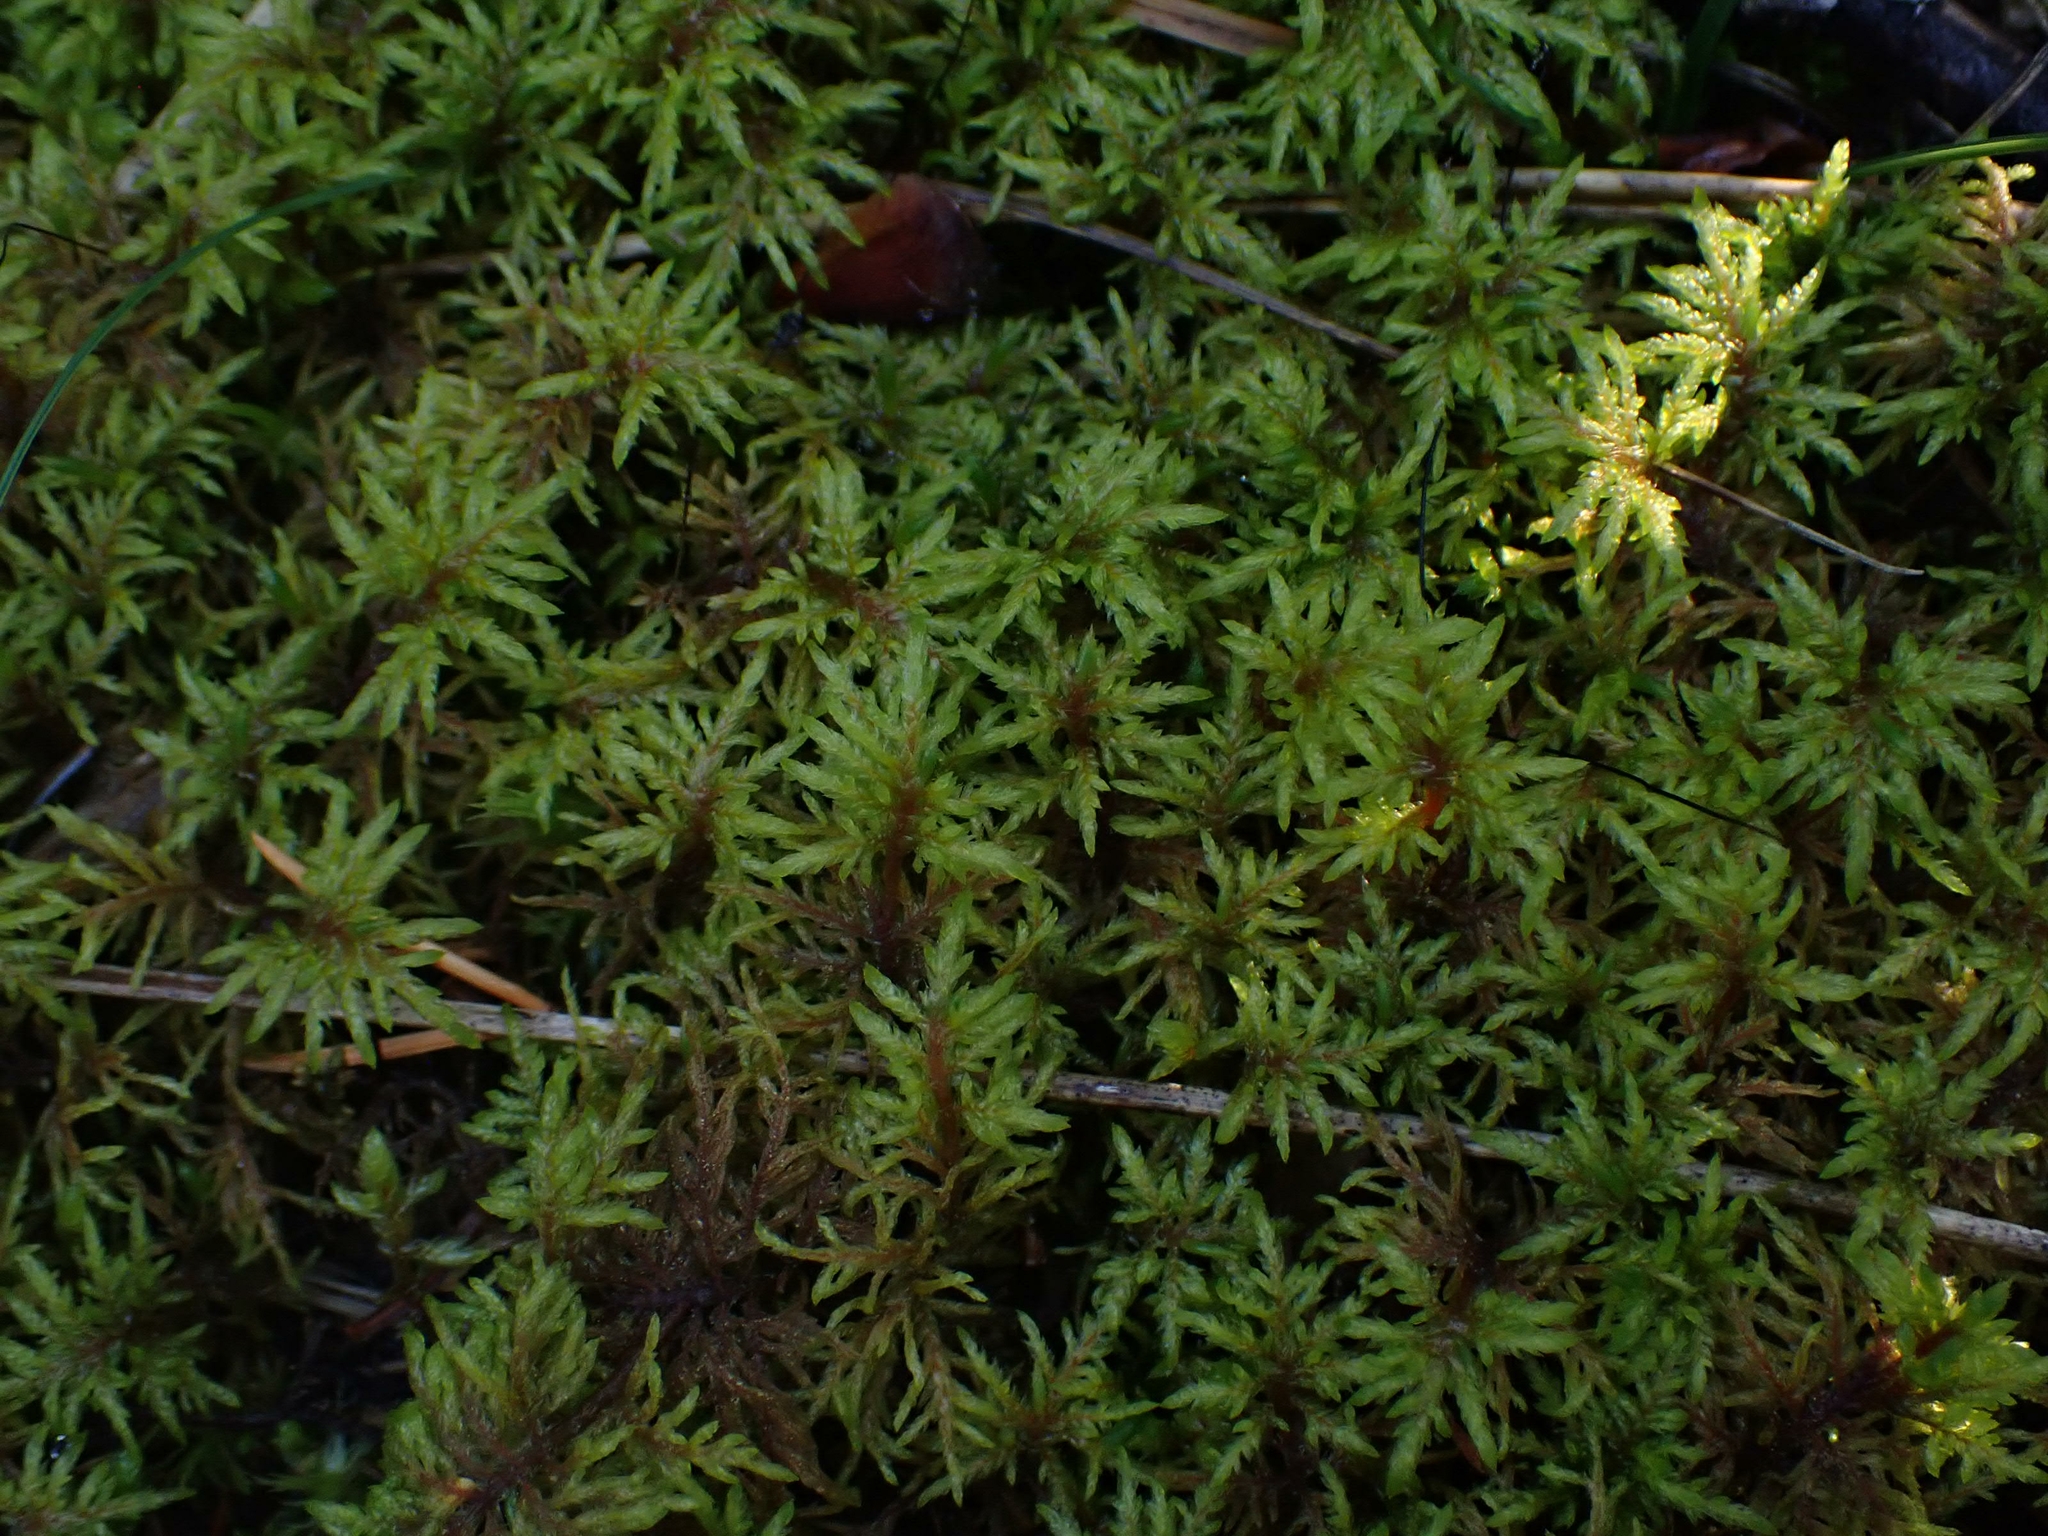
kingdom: Plantae
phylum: Bryophyta
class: Bryopsida
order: Hypnales
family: Hylocomiaceae
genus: Hylocomium
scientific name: Hylocomium splendens
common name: Stairstep moss
